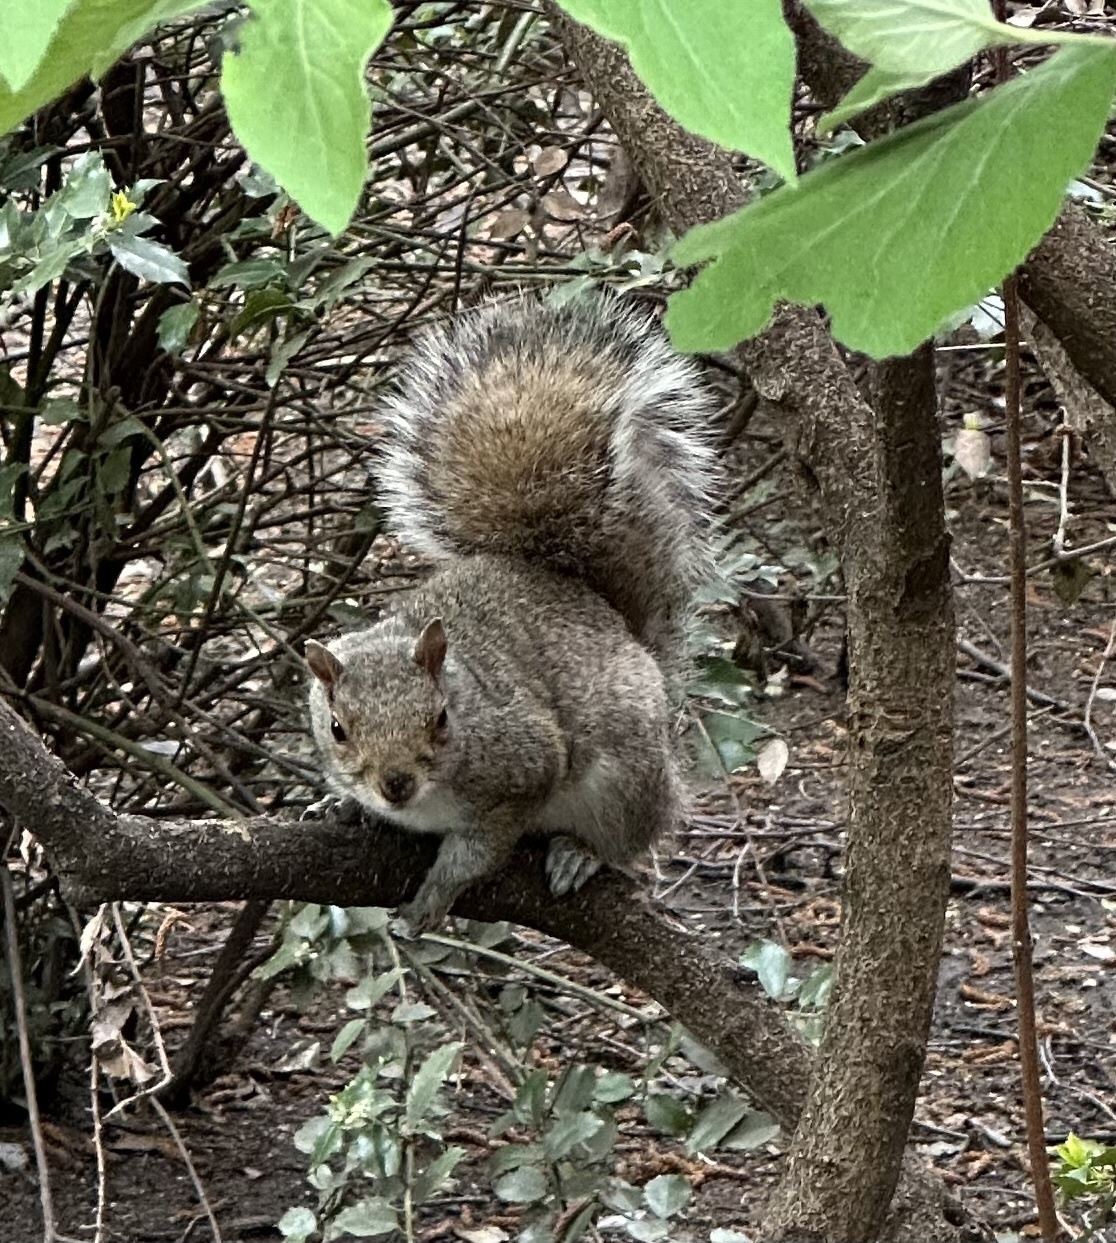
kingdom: Animalia
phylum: Chordata
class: Mammalia
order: Rodentia
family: Sciuridae
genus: Sciurus
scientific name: Sciurus carolinensis
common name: Eastern gray squirrel
